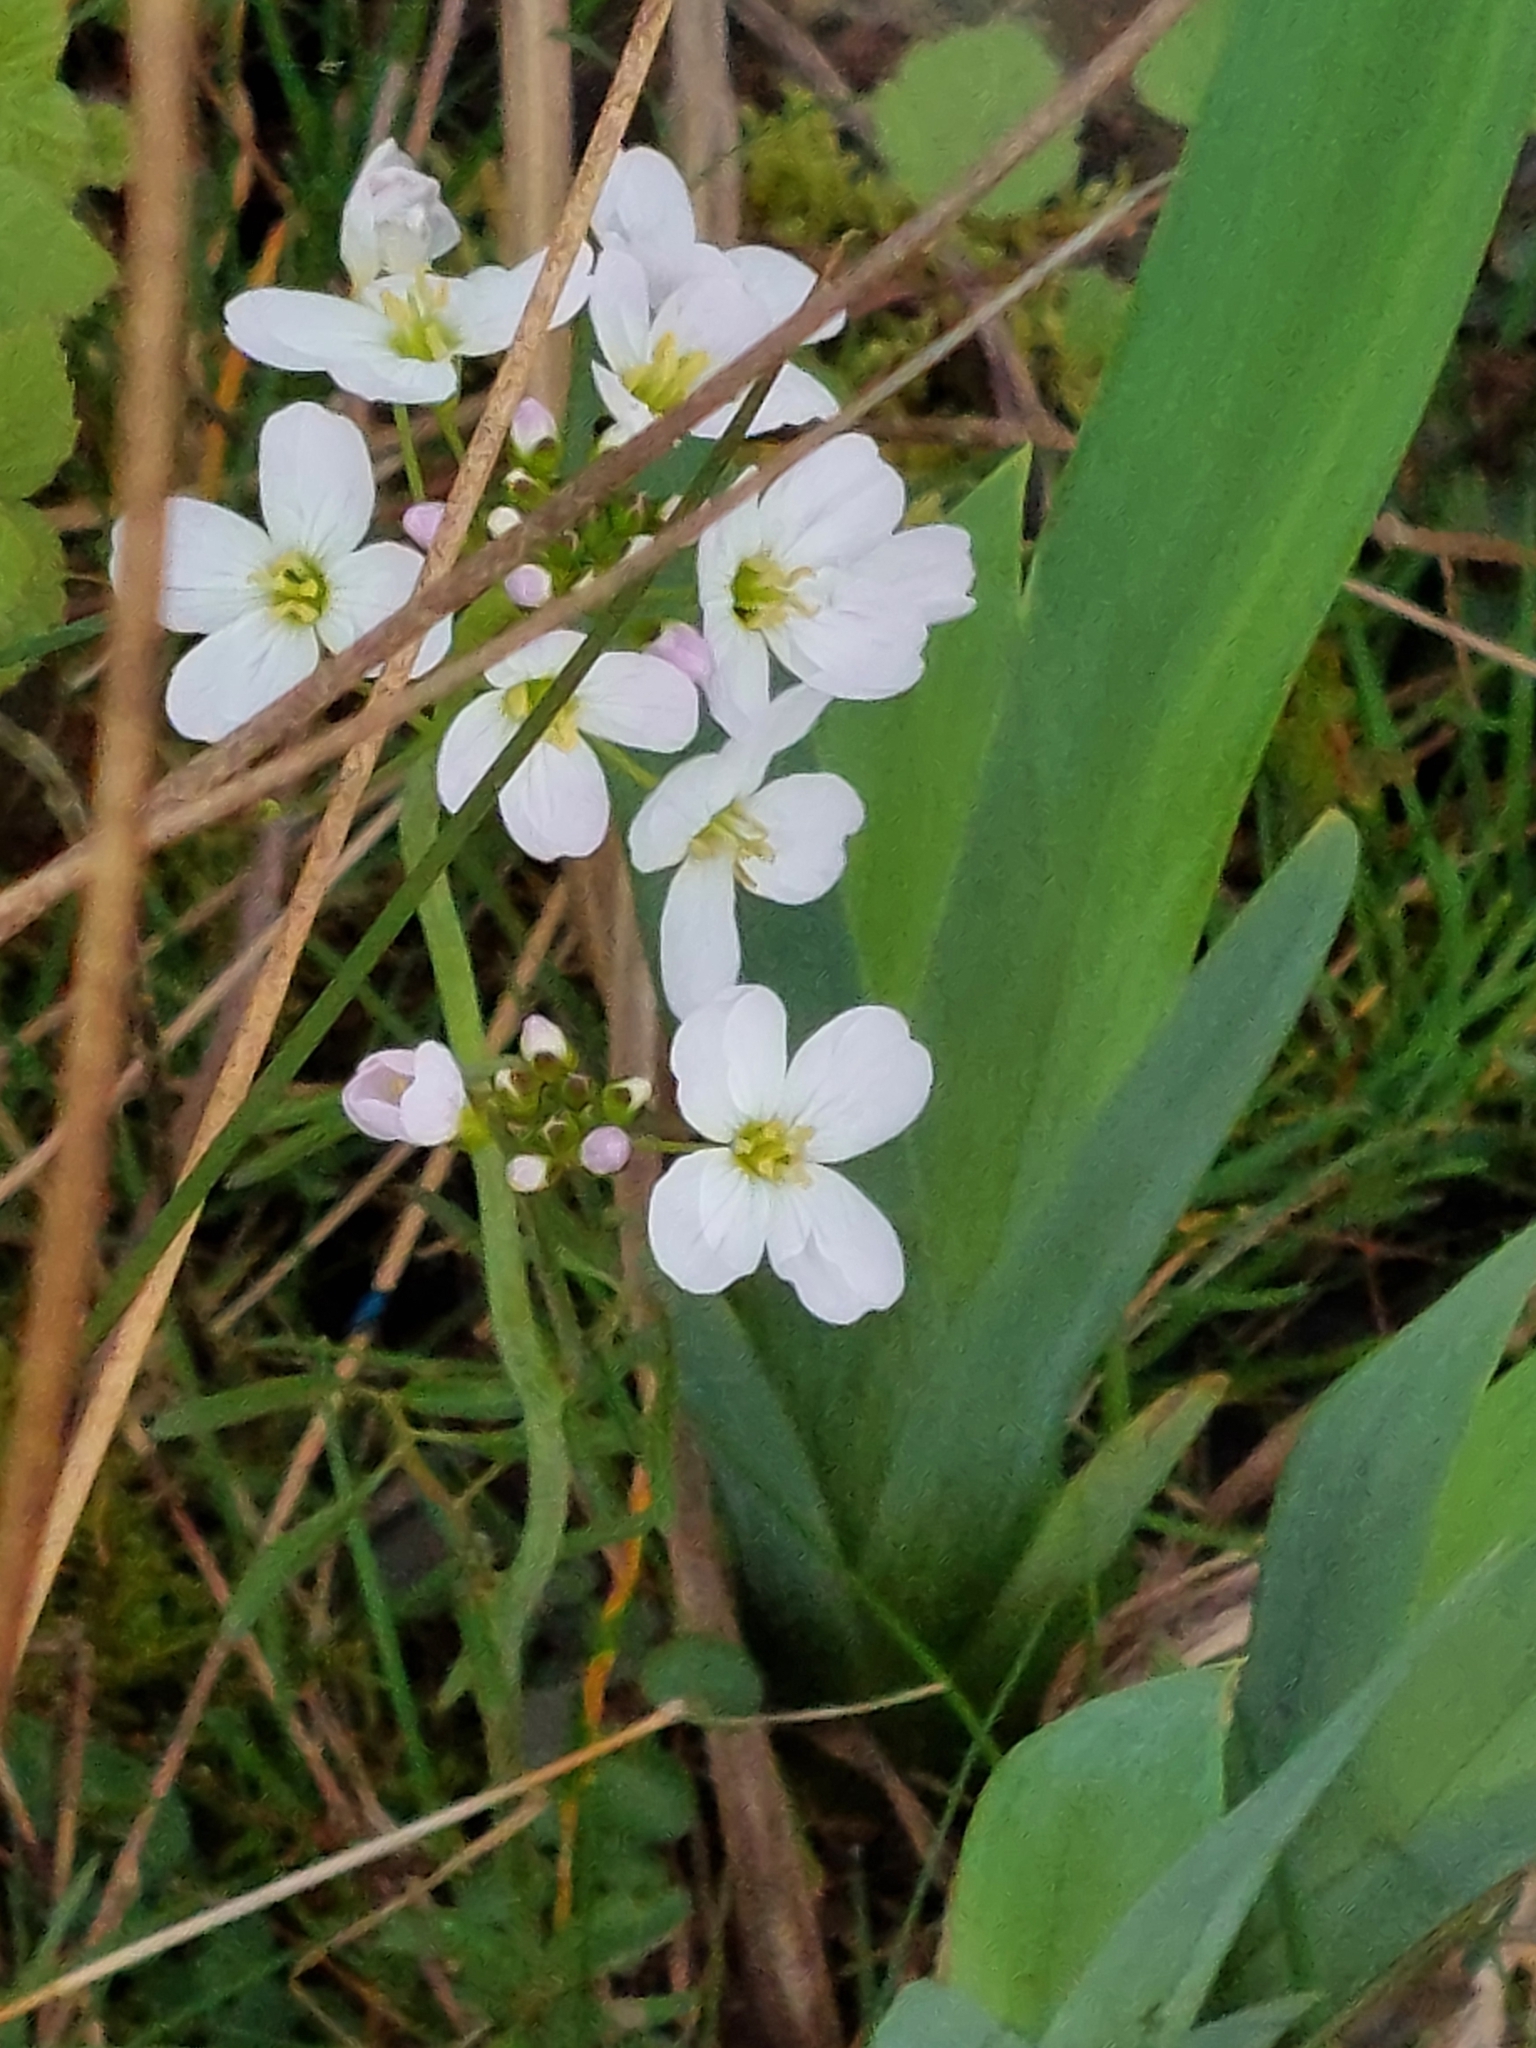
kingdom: Plantae
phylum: Tracheophyta
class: Magnoliopsida
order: Brassicales
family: Brassicaceae
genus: Cardamine
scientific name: Cardamine pratensis
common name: Cuckoo flower
